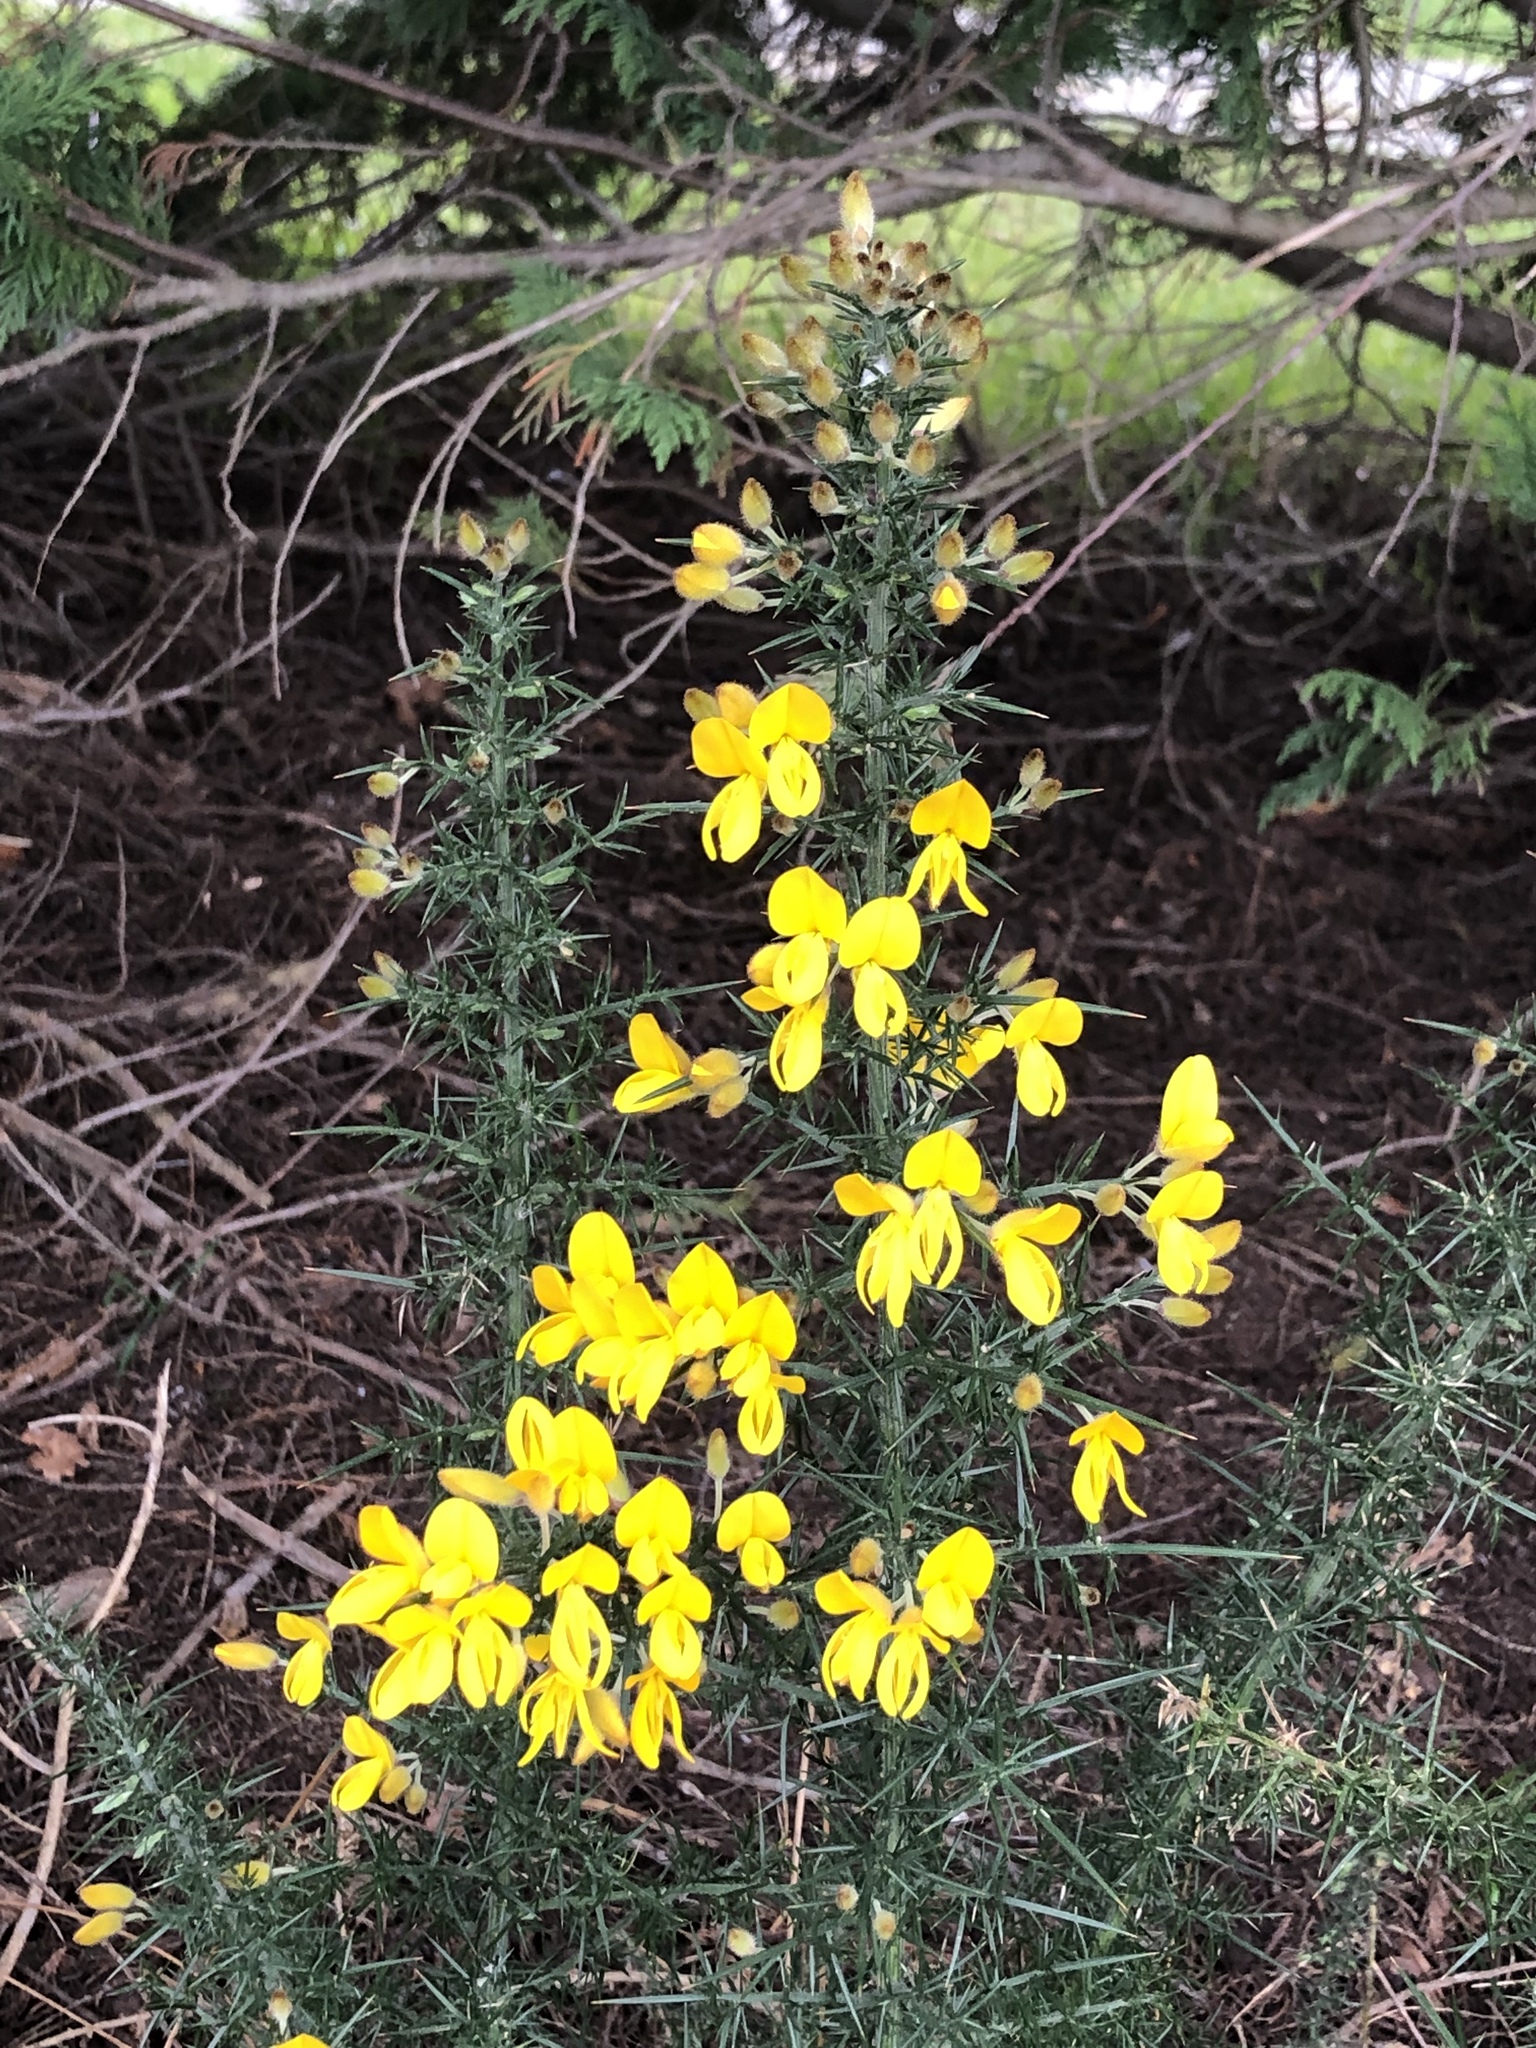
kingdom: Plantae
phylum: Tracheophyta
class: Magnoliopsida
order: Fabales
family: Fabaceae
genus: Ulex
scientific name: Ulex europaeus
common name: Common gorse
